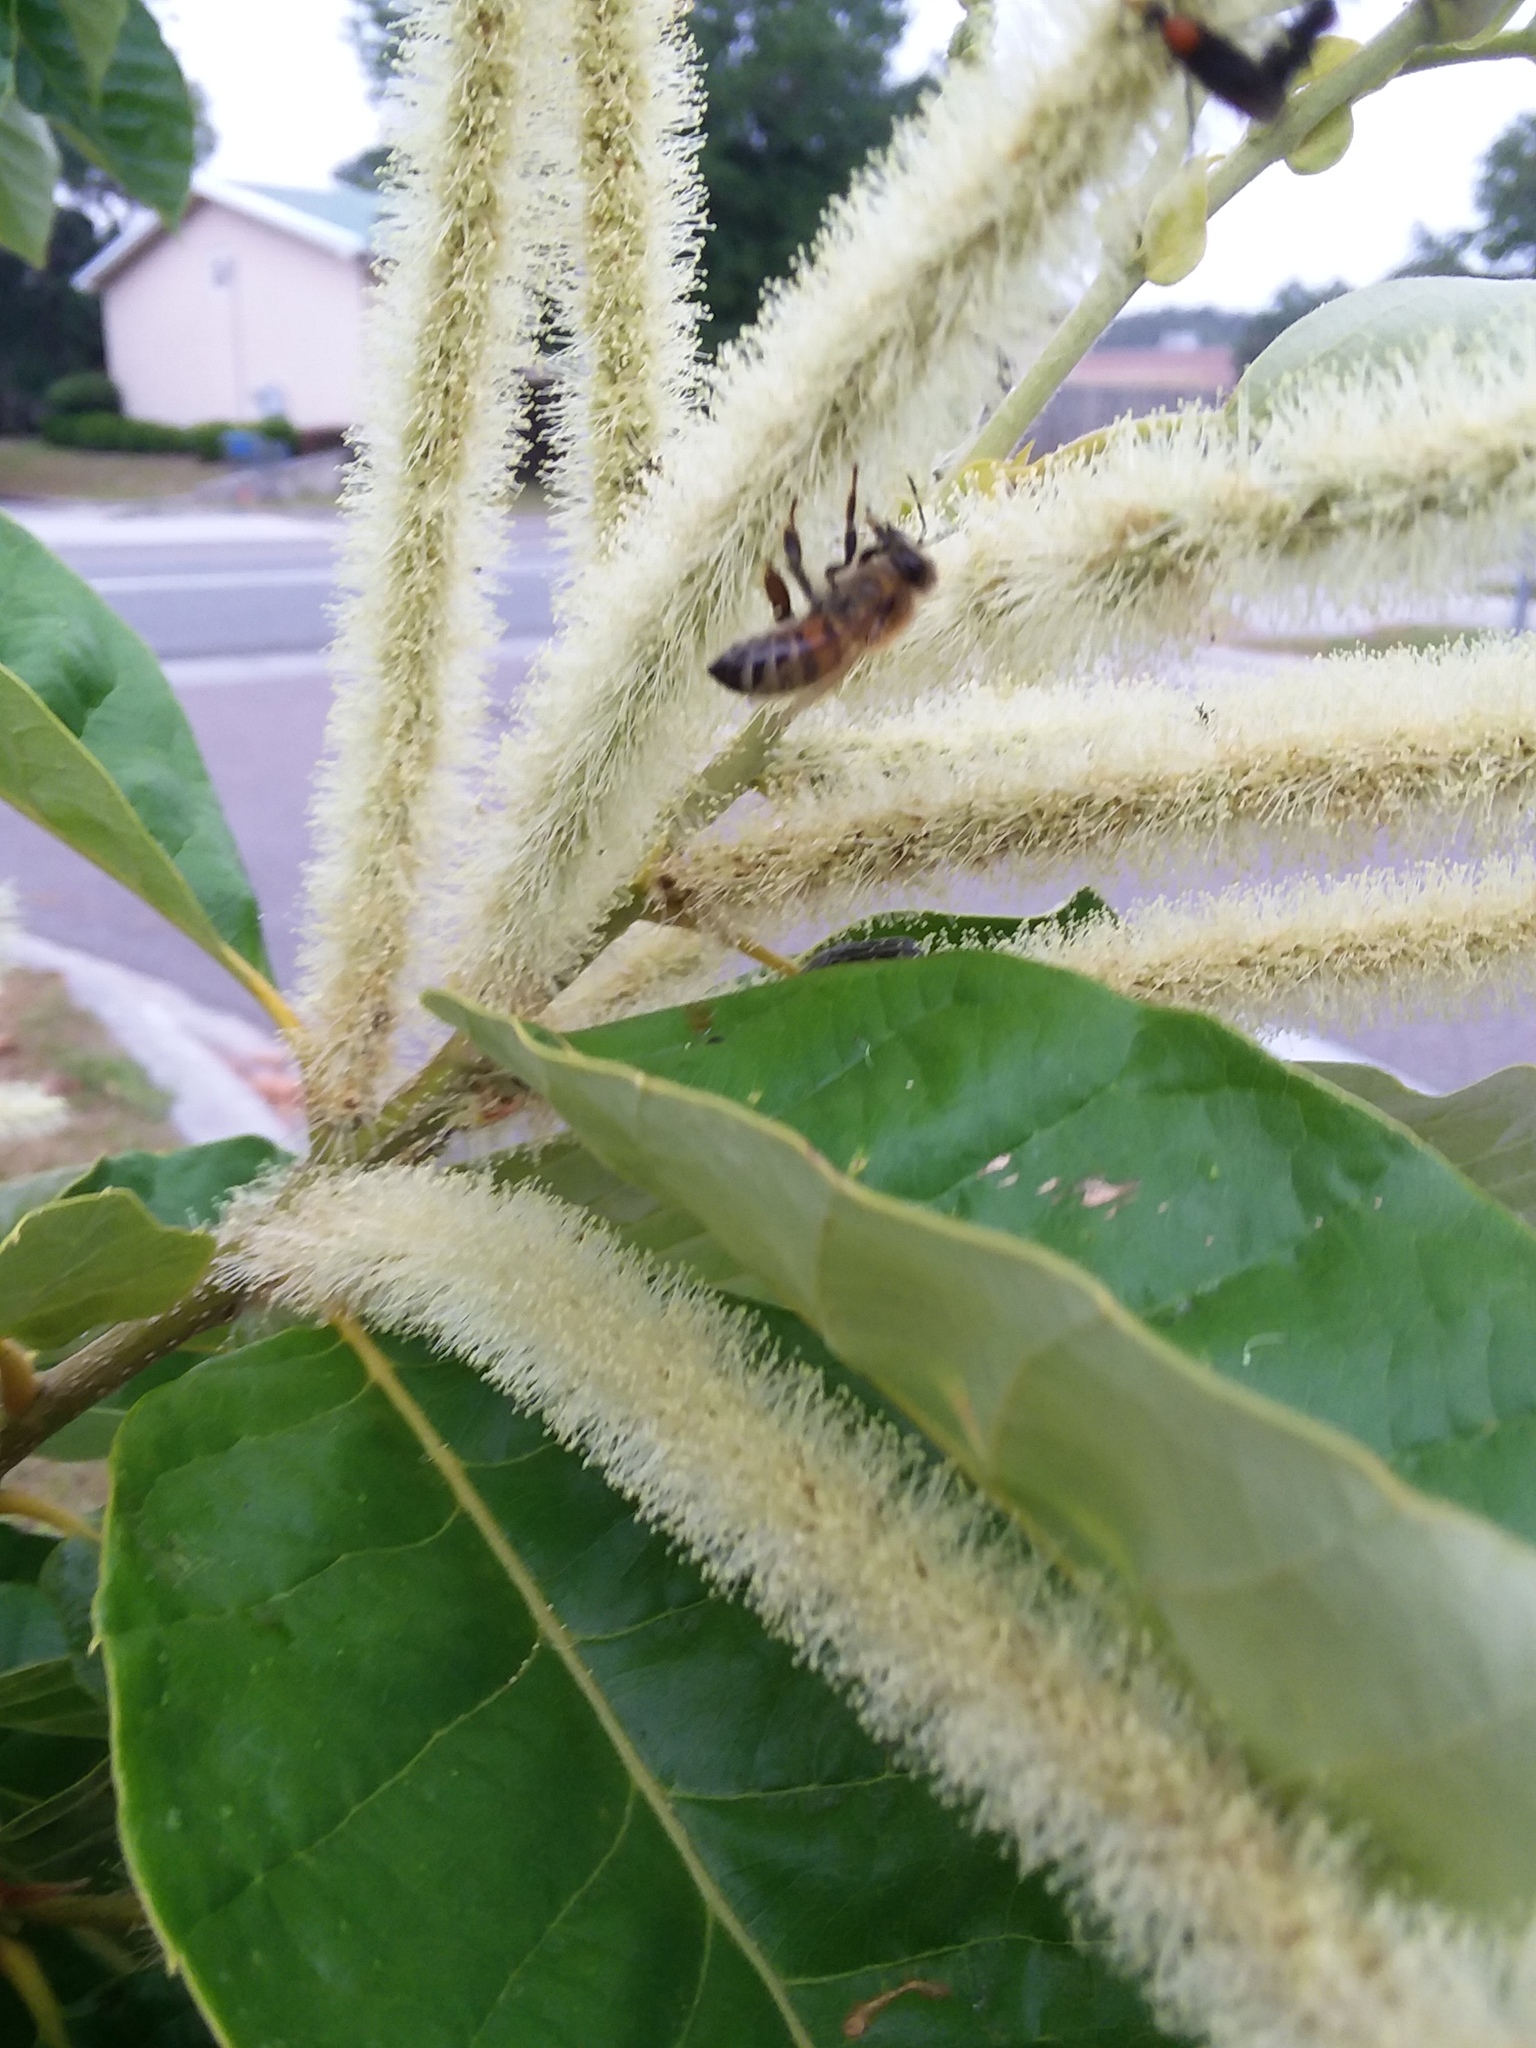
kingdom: Animalia
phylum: Arthropoda
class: Insecta
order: Hymenoptera
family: Apidae
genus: Apis
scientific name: Apis mellifera
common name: Honey bee
